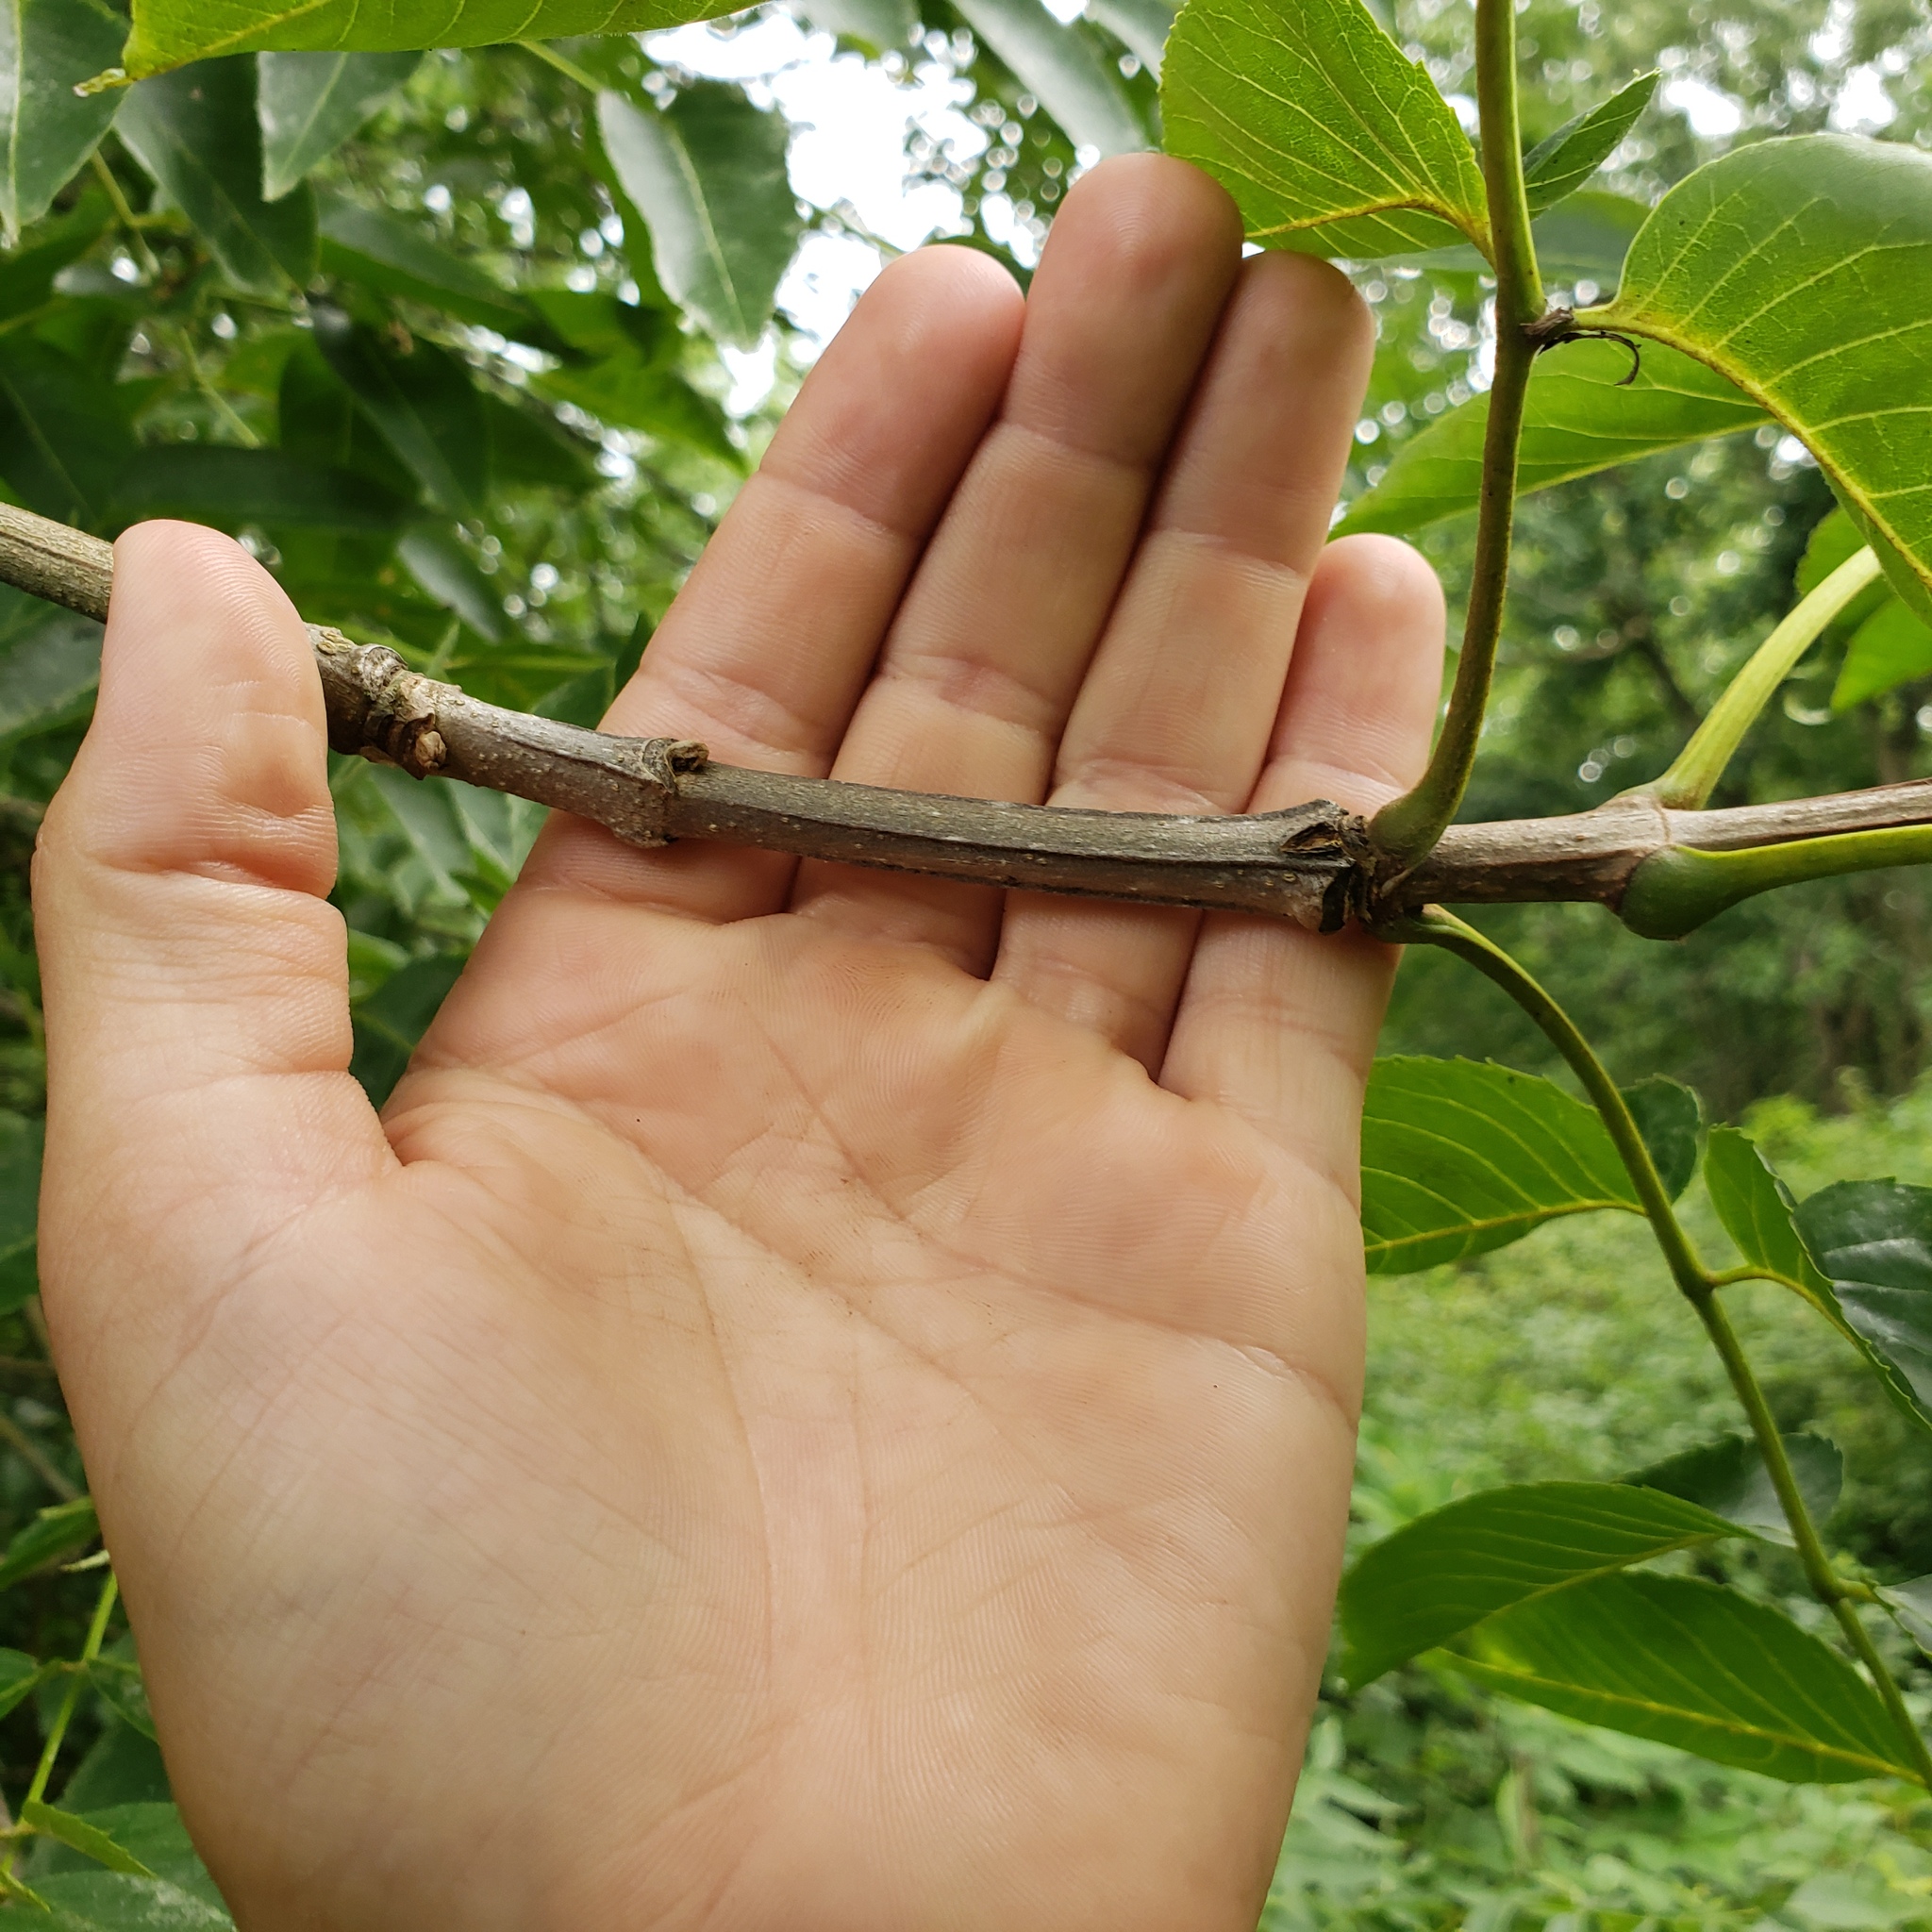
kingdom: Plantae
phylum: Tracheophyta
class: Magnoliopsida
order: Lamiales
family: Oleaceae
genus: Fraxinus
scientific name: Fraxinus quadrangulata
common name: Blue ash
